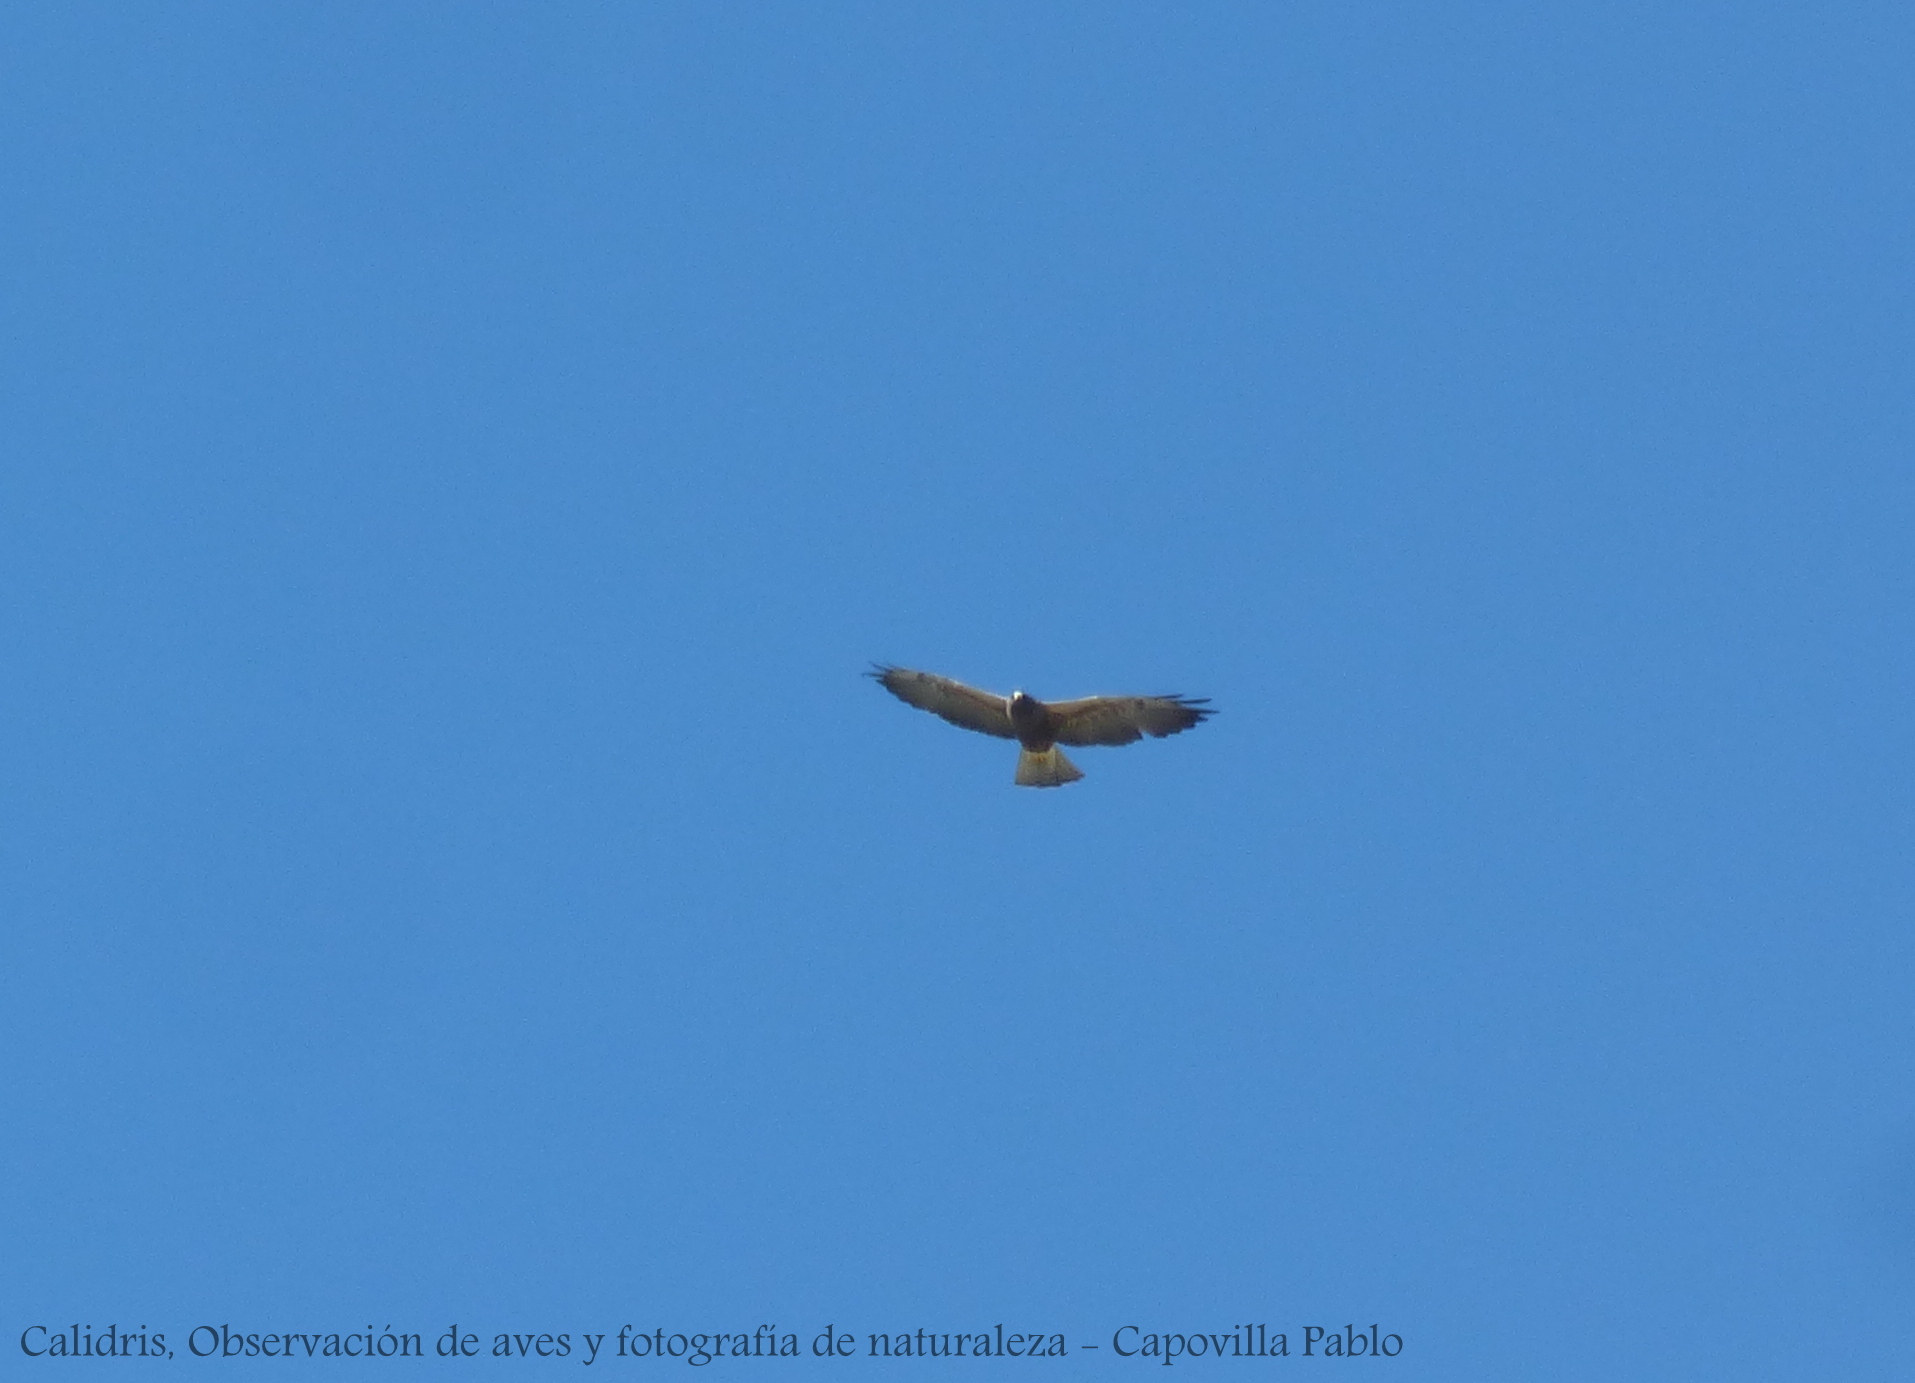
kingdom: Animalia
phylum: Chordata
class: Aves
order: Accipitriformes
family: Accipitridae
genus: Buteo
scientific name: Buteo swainsoni
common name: Swainson's hawk
